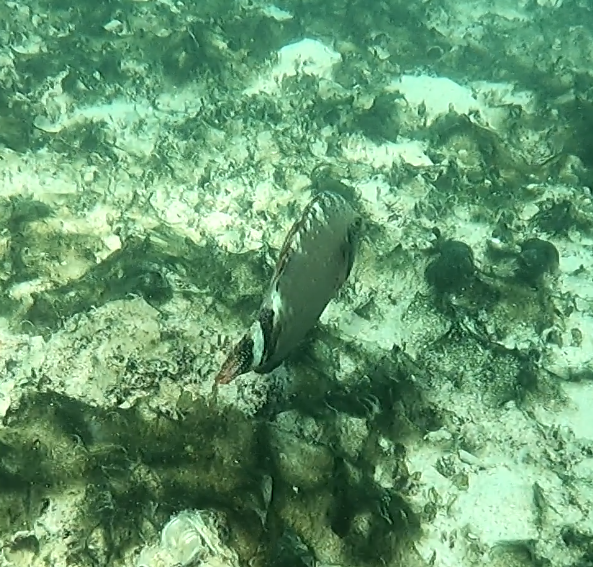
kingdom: Animalia
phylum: Chordata
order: Perciformes
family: Labridae
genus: Cheilinus
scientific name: Cheilinus chlorourus
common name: Floral wrasse
